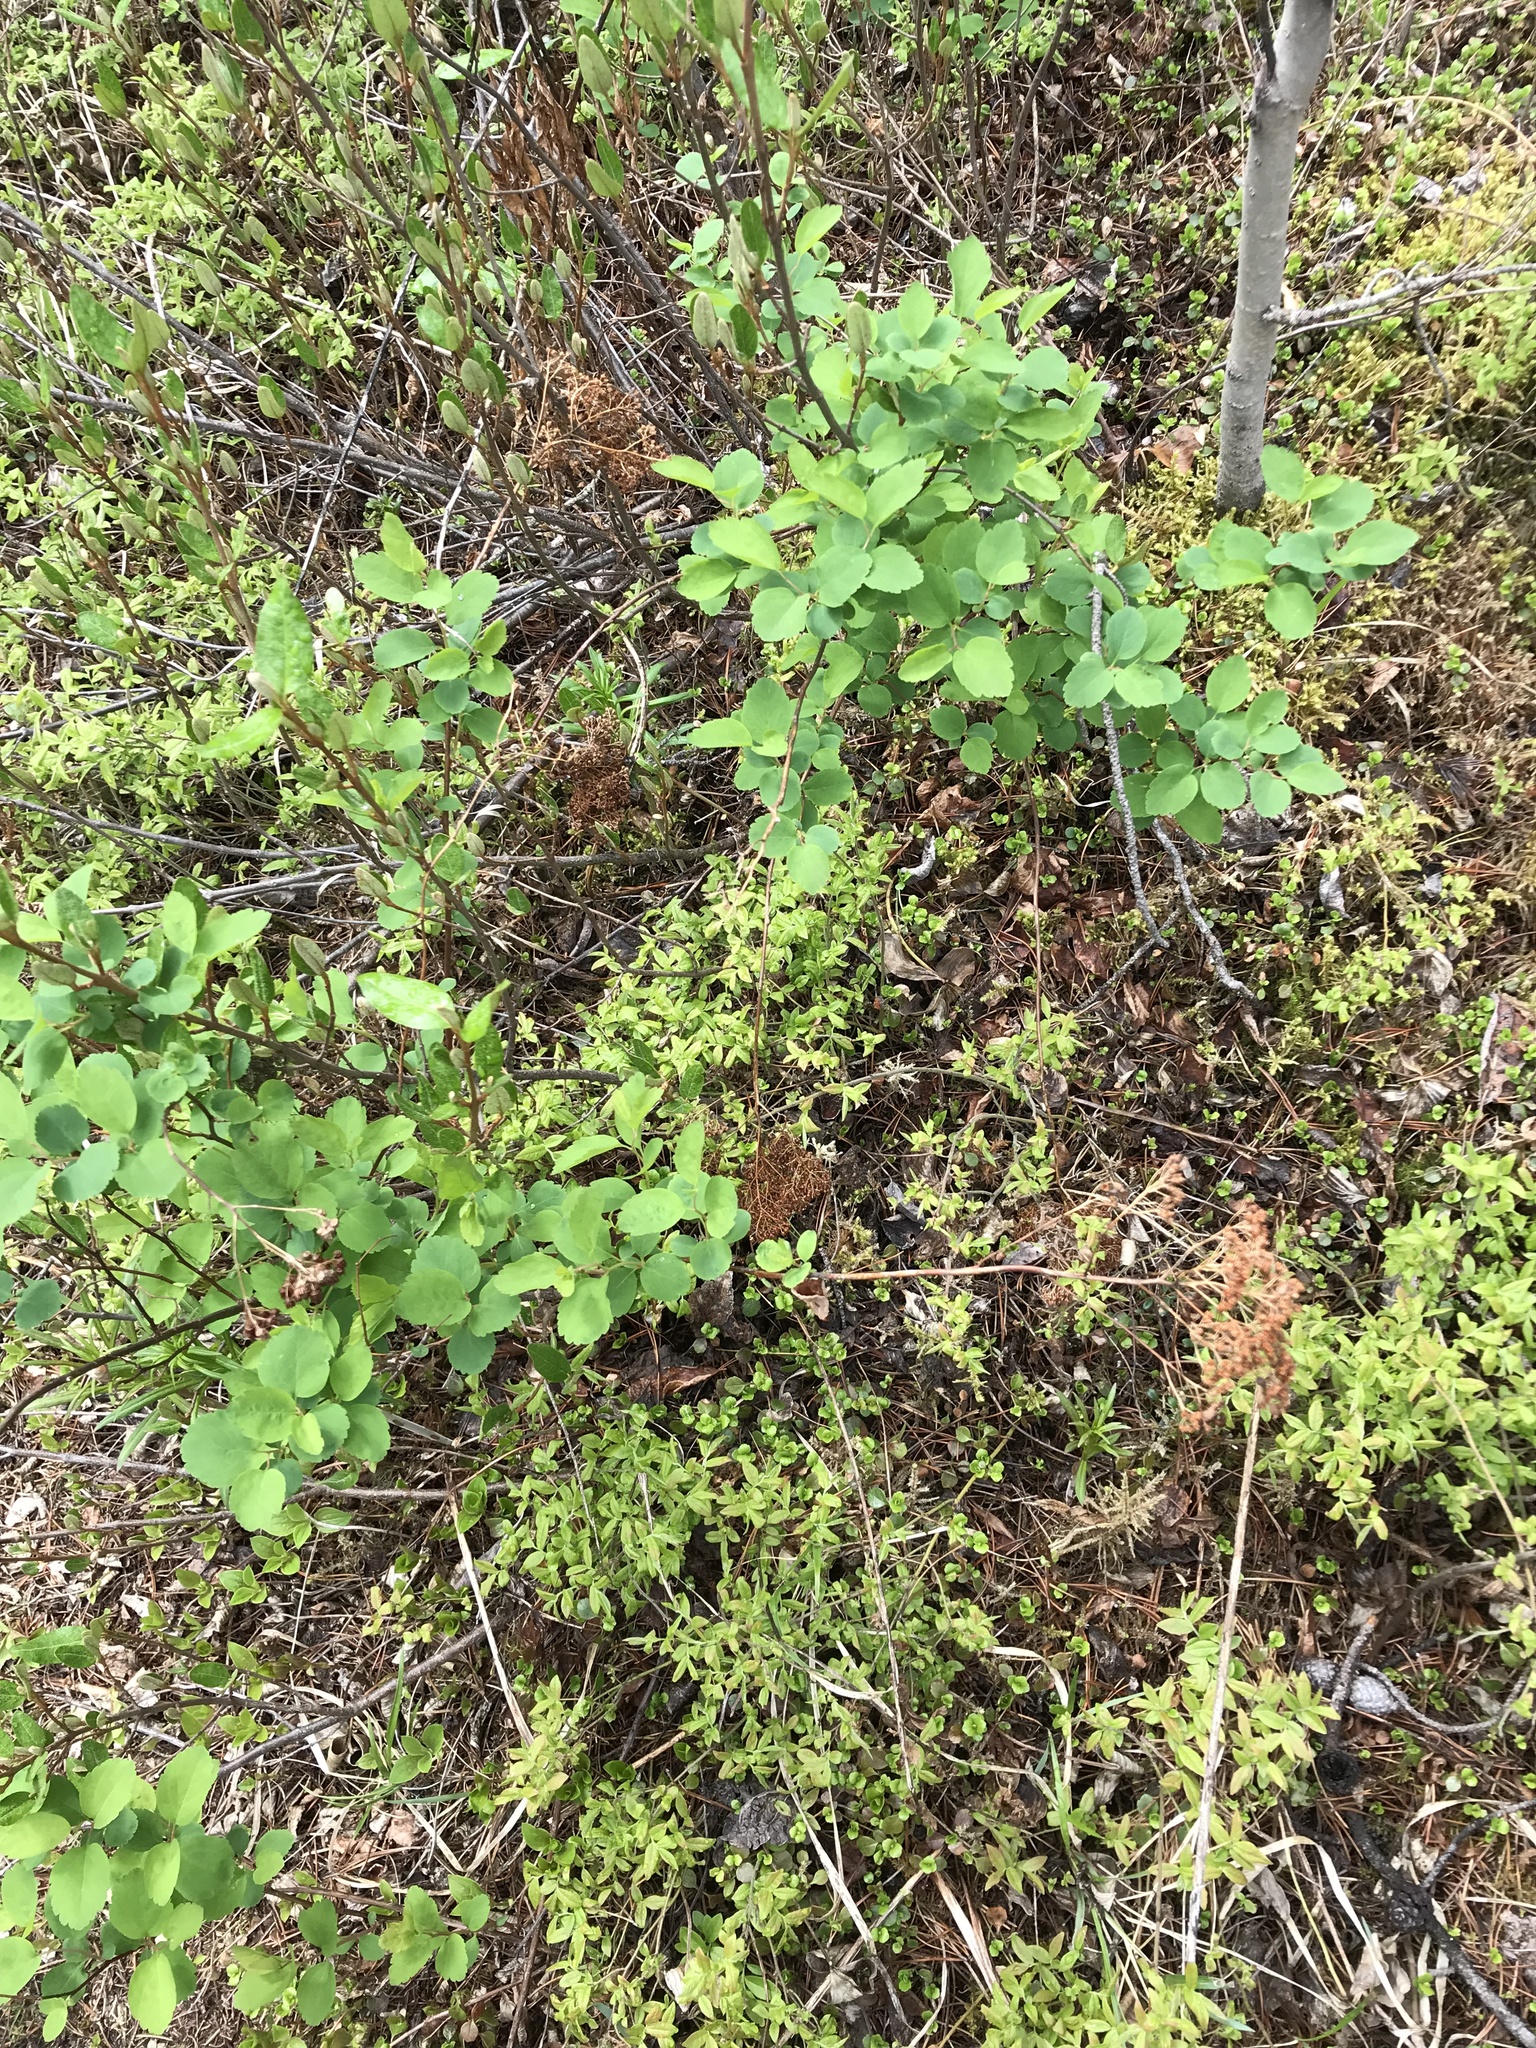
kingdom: Plantae
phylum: Tracheophyta
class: Magnoliopsida
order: Rosales
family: Rosaceae
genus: Spiraea
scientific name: Spiraea lucida
